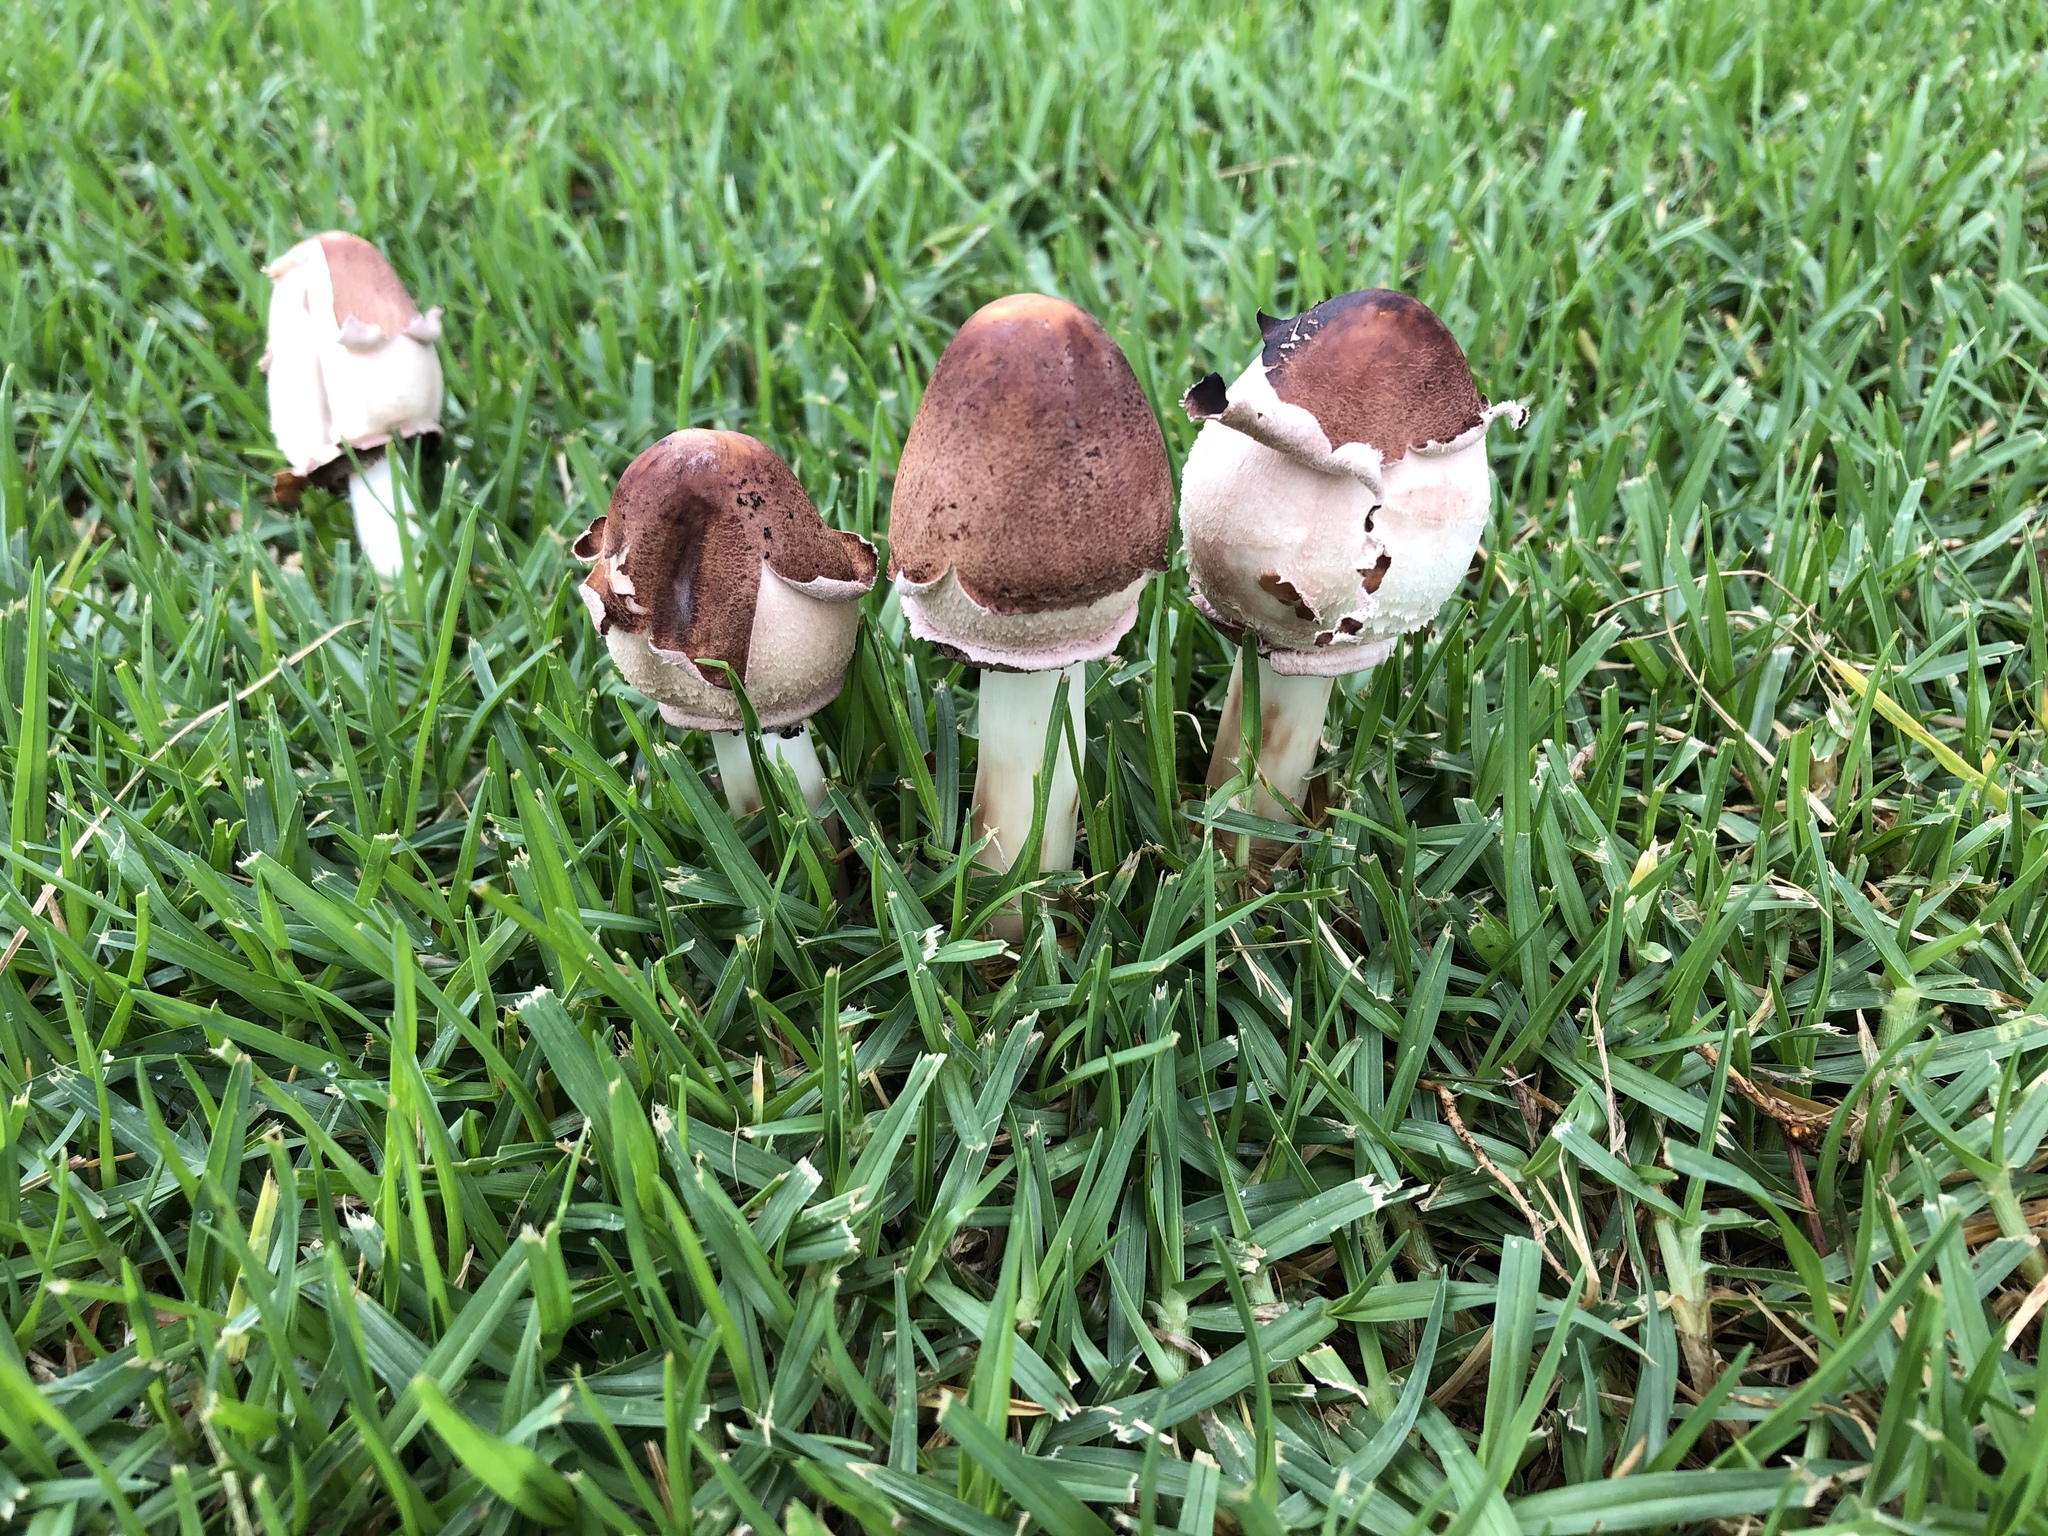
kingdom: Fungi
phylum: Basidiomycota
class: Agaricomycetes
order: Agaricales
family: Agaricaceae
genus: Chlorophyllum
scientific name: Chlorophyllum molybdites
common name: False parasol
